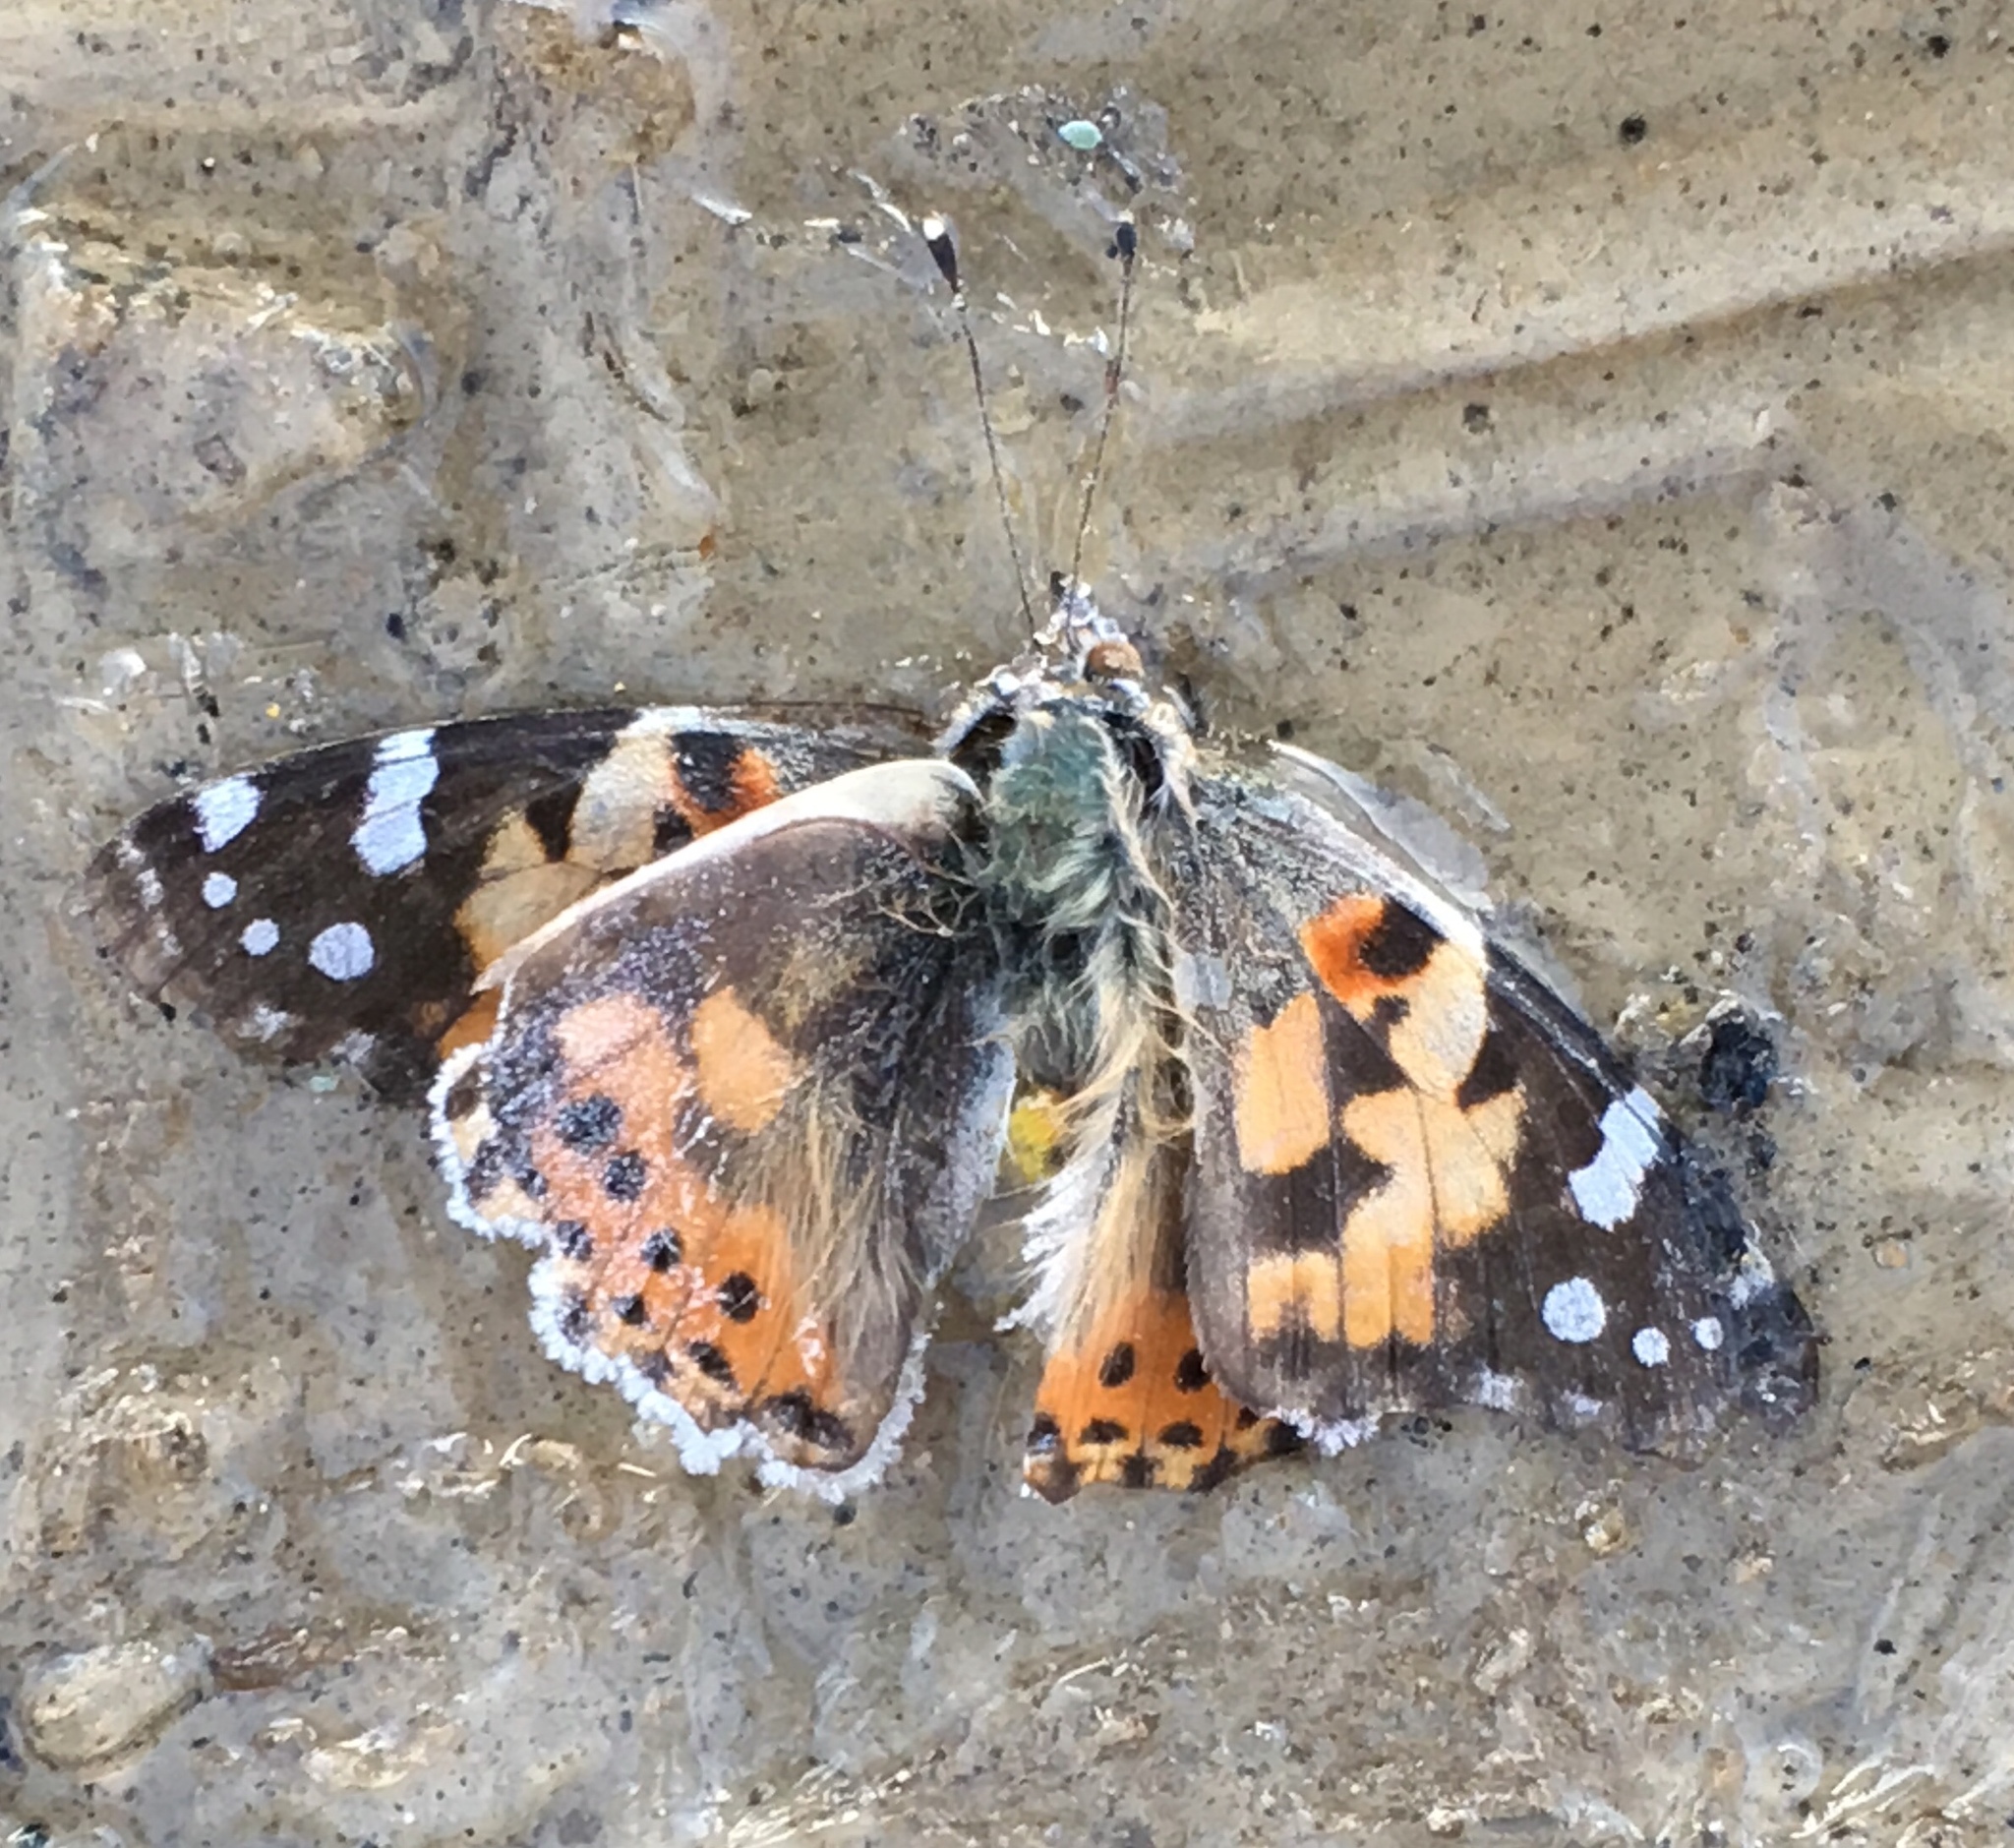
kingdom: Animalia
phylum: Arthropoda
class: Insecta
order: Lepidoptera
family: Nymphalidae
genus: Vanessa
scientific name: Vanessa cardui
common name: Painted lady
